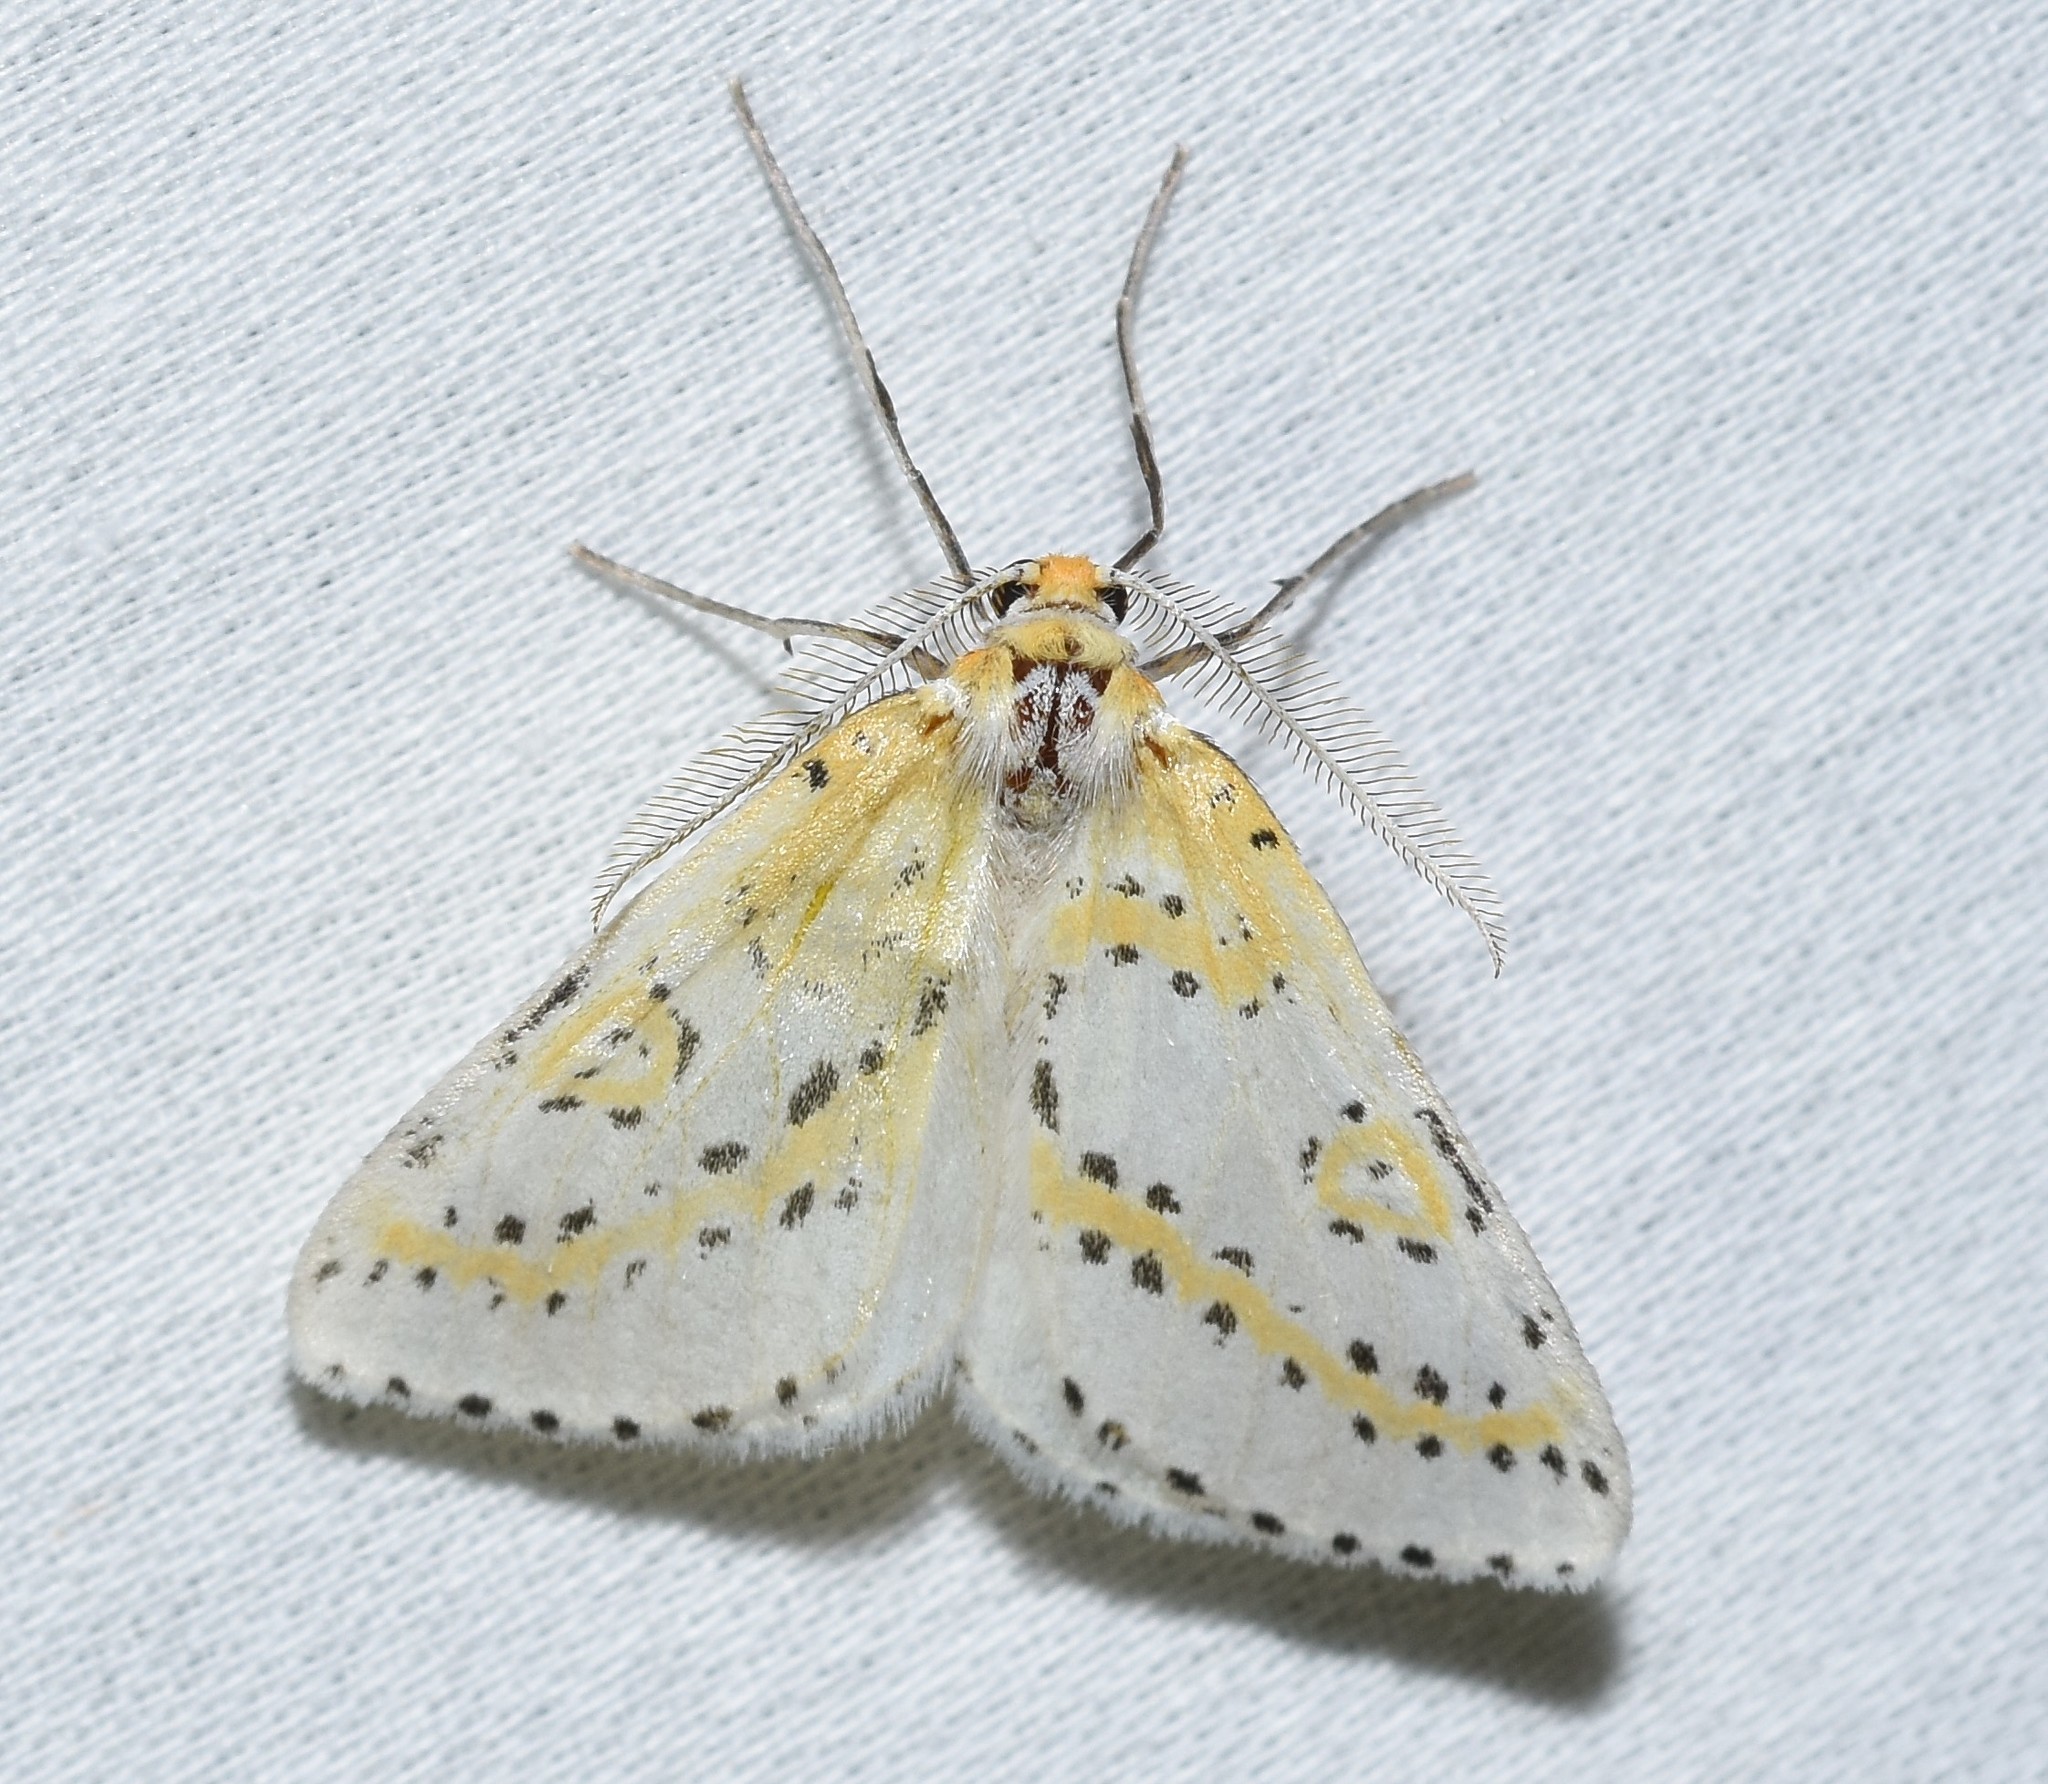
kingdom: Animalia
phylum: Arthropoda
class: Insecta
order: Lepidoptera
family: Geometridae
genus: Philtraea
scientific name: Philtraea monillata
